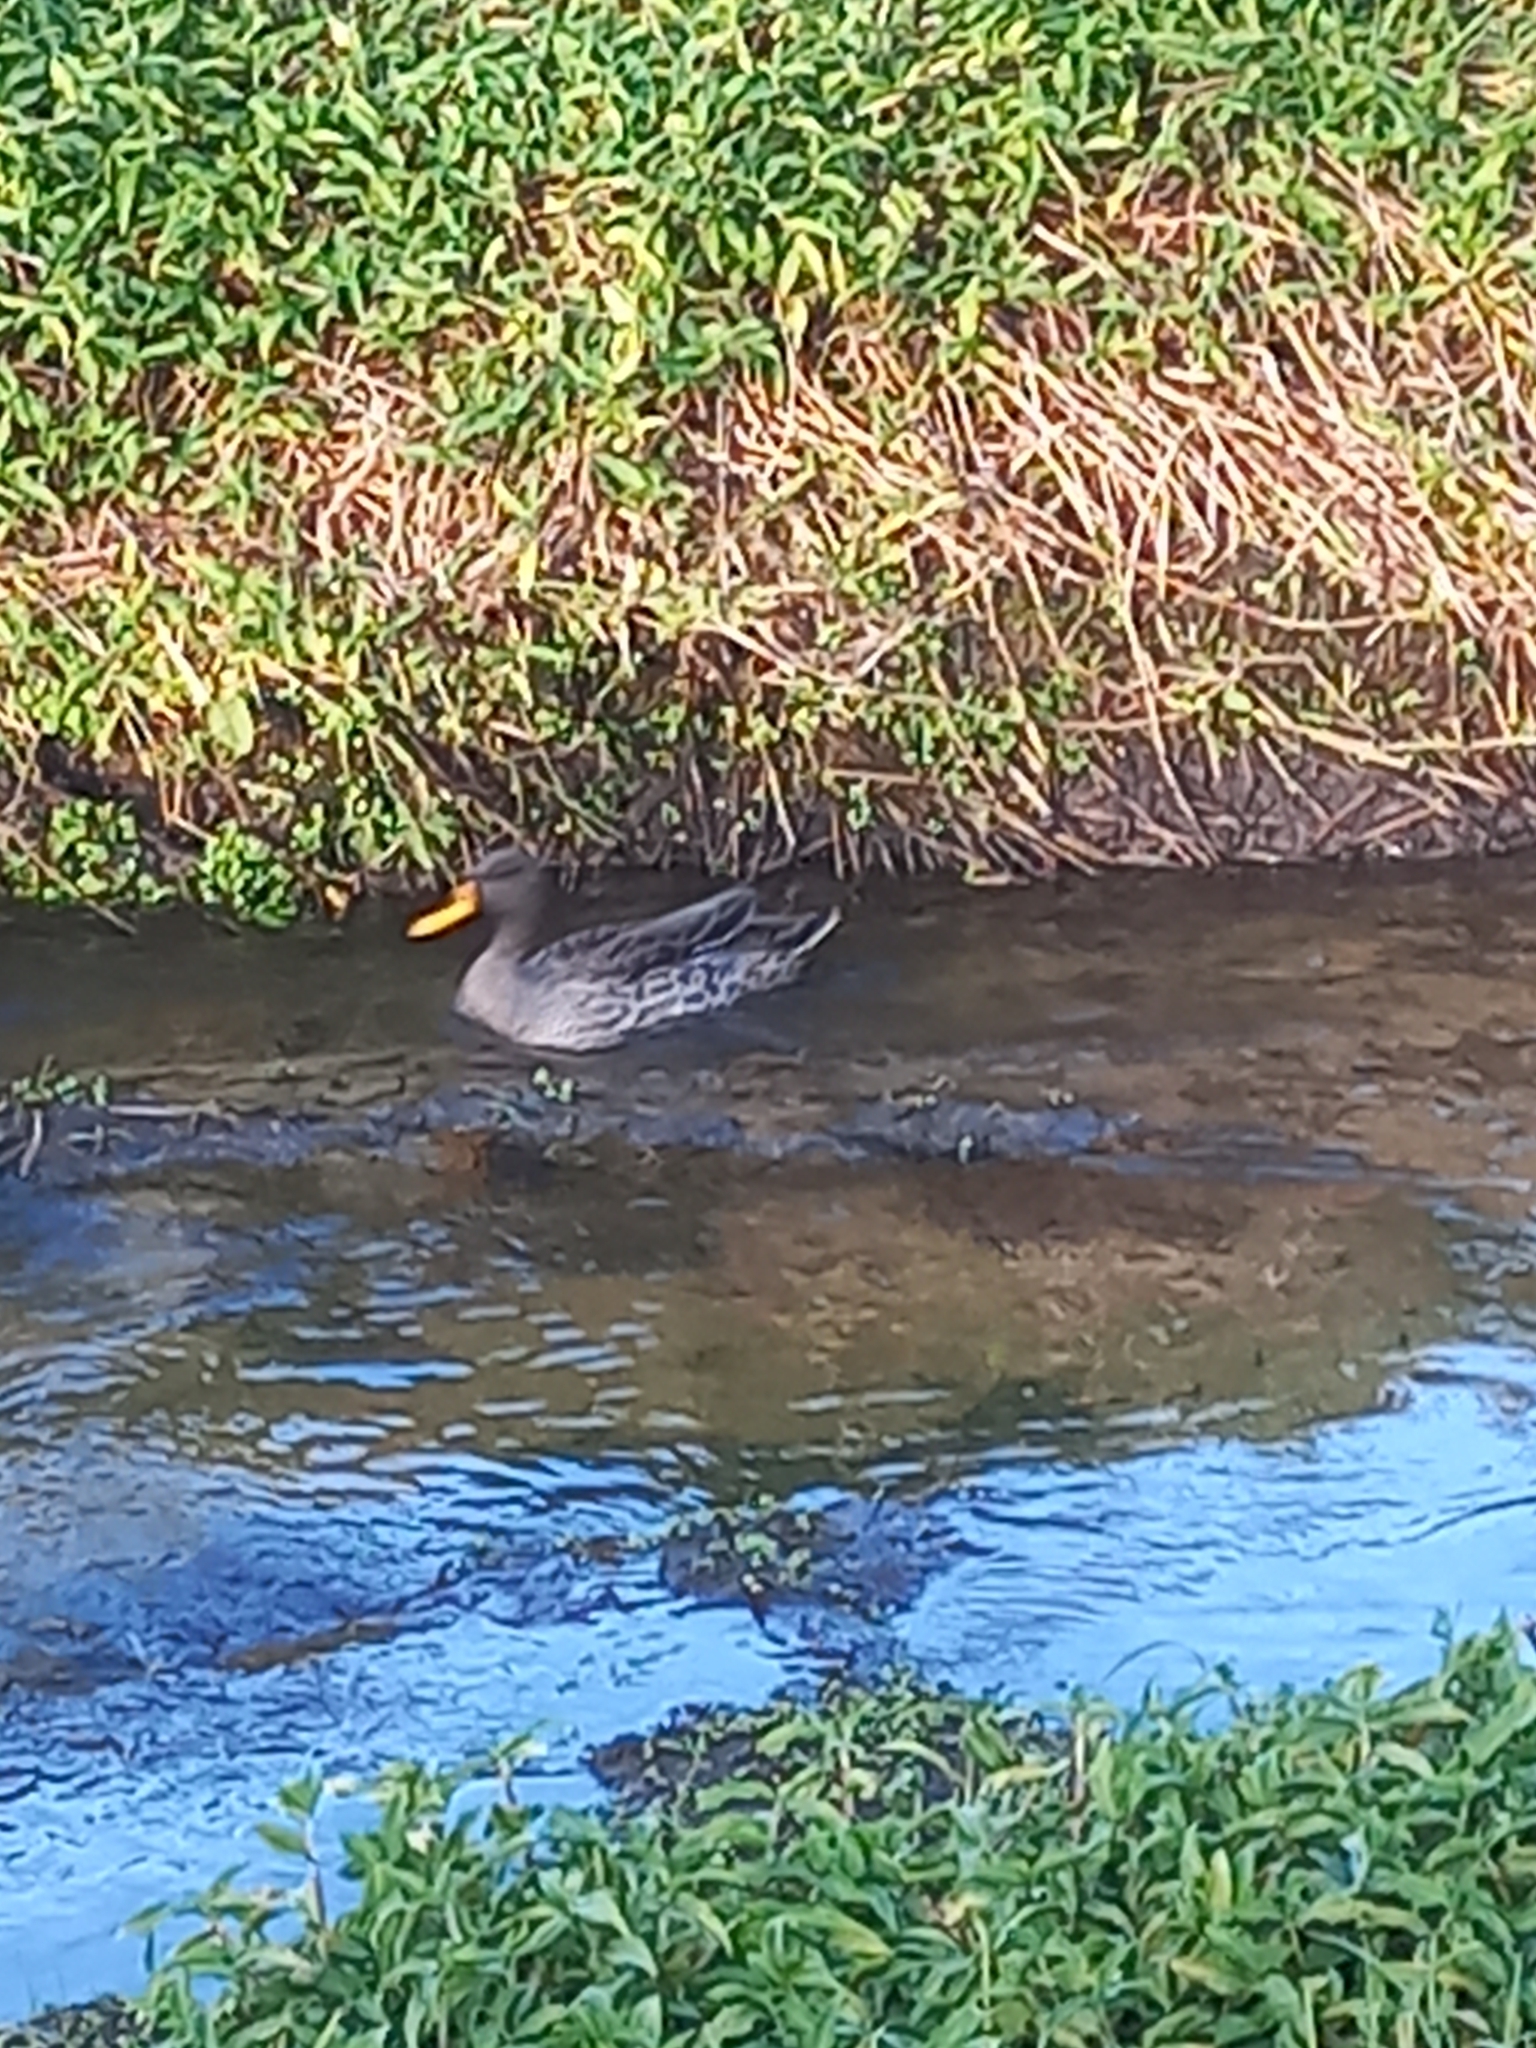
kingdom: Animalia
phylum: Chordata
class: Aves
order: Anseriformes
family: Anatidae
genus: Anas
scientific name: Anas undulata
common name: Yellow-billed duck
